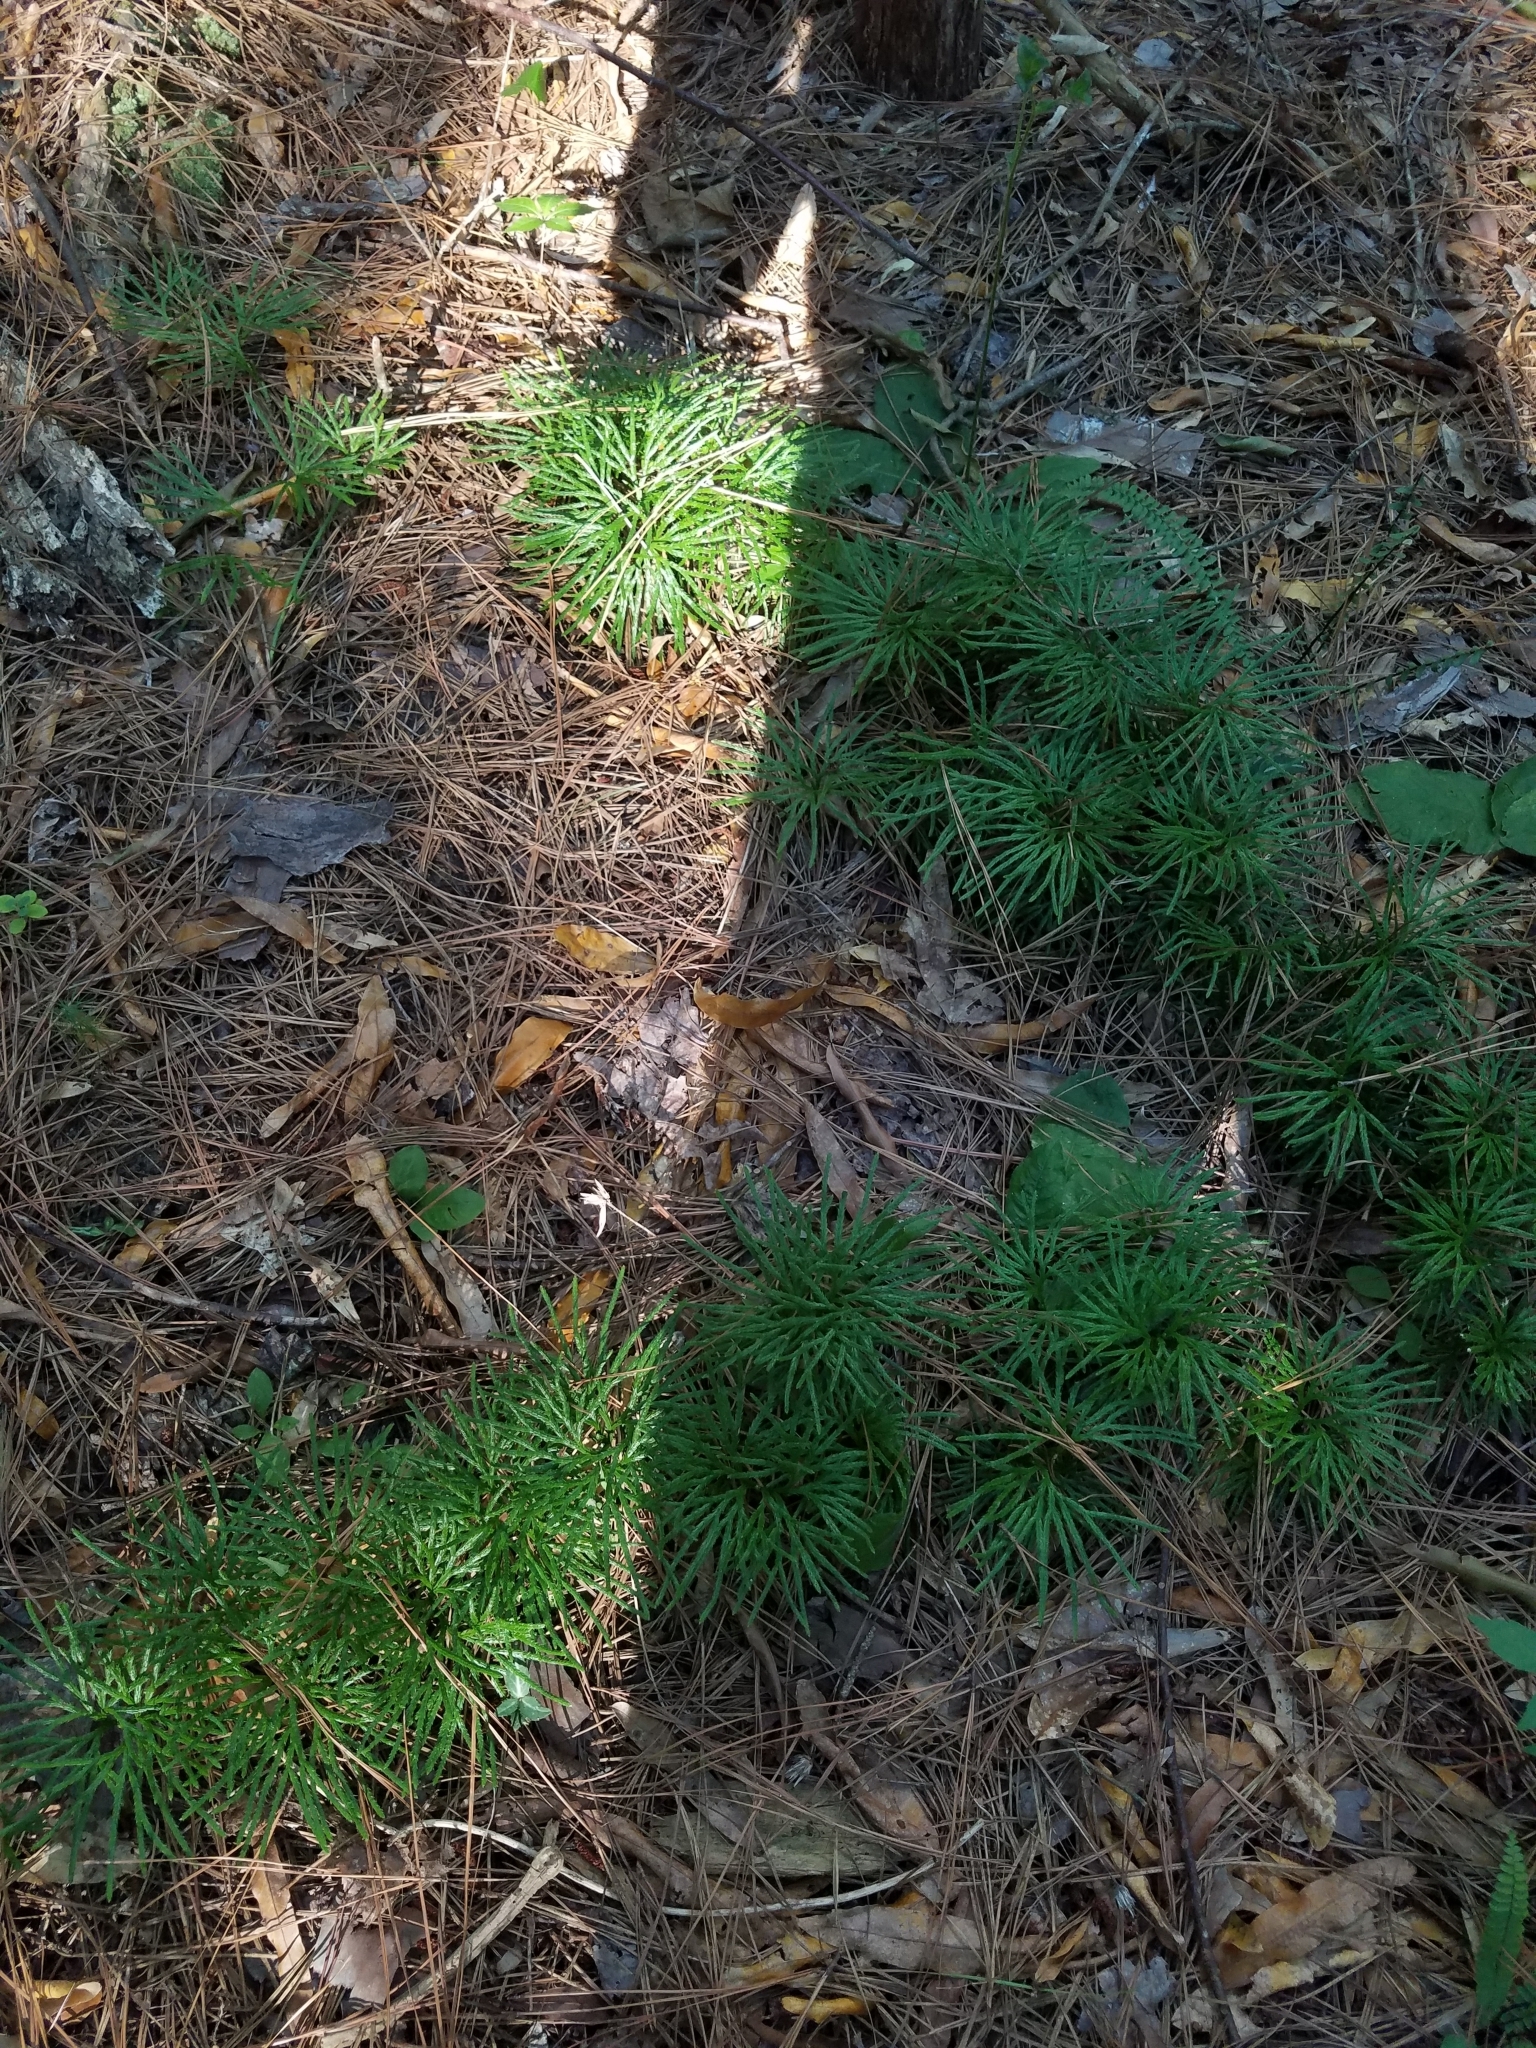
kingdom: Plantae
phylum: Tracheophyta
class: Lycopodiopsida
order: Lycopodiales
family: Lycopodiaceae
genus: Diphasiastrum
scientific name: Diphasiastrum digitatum
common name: Southern running-pine
